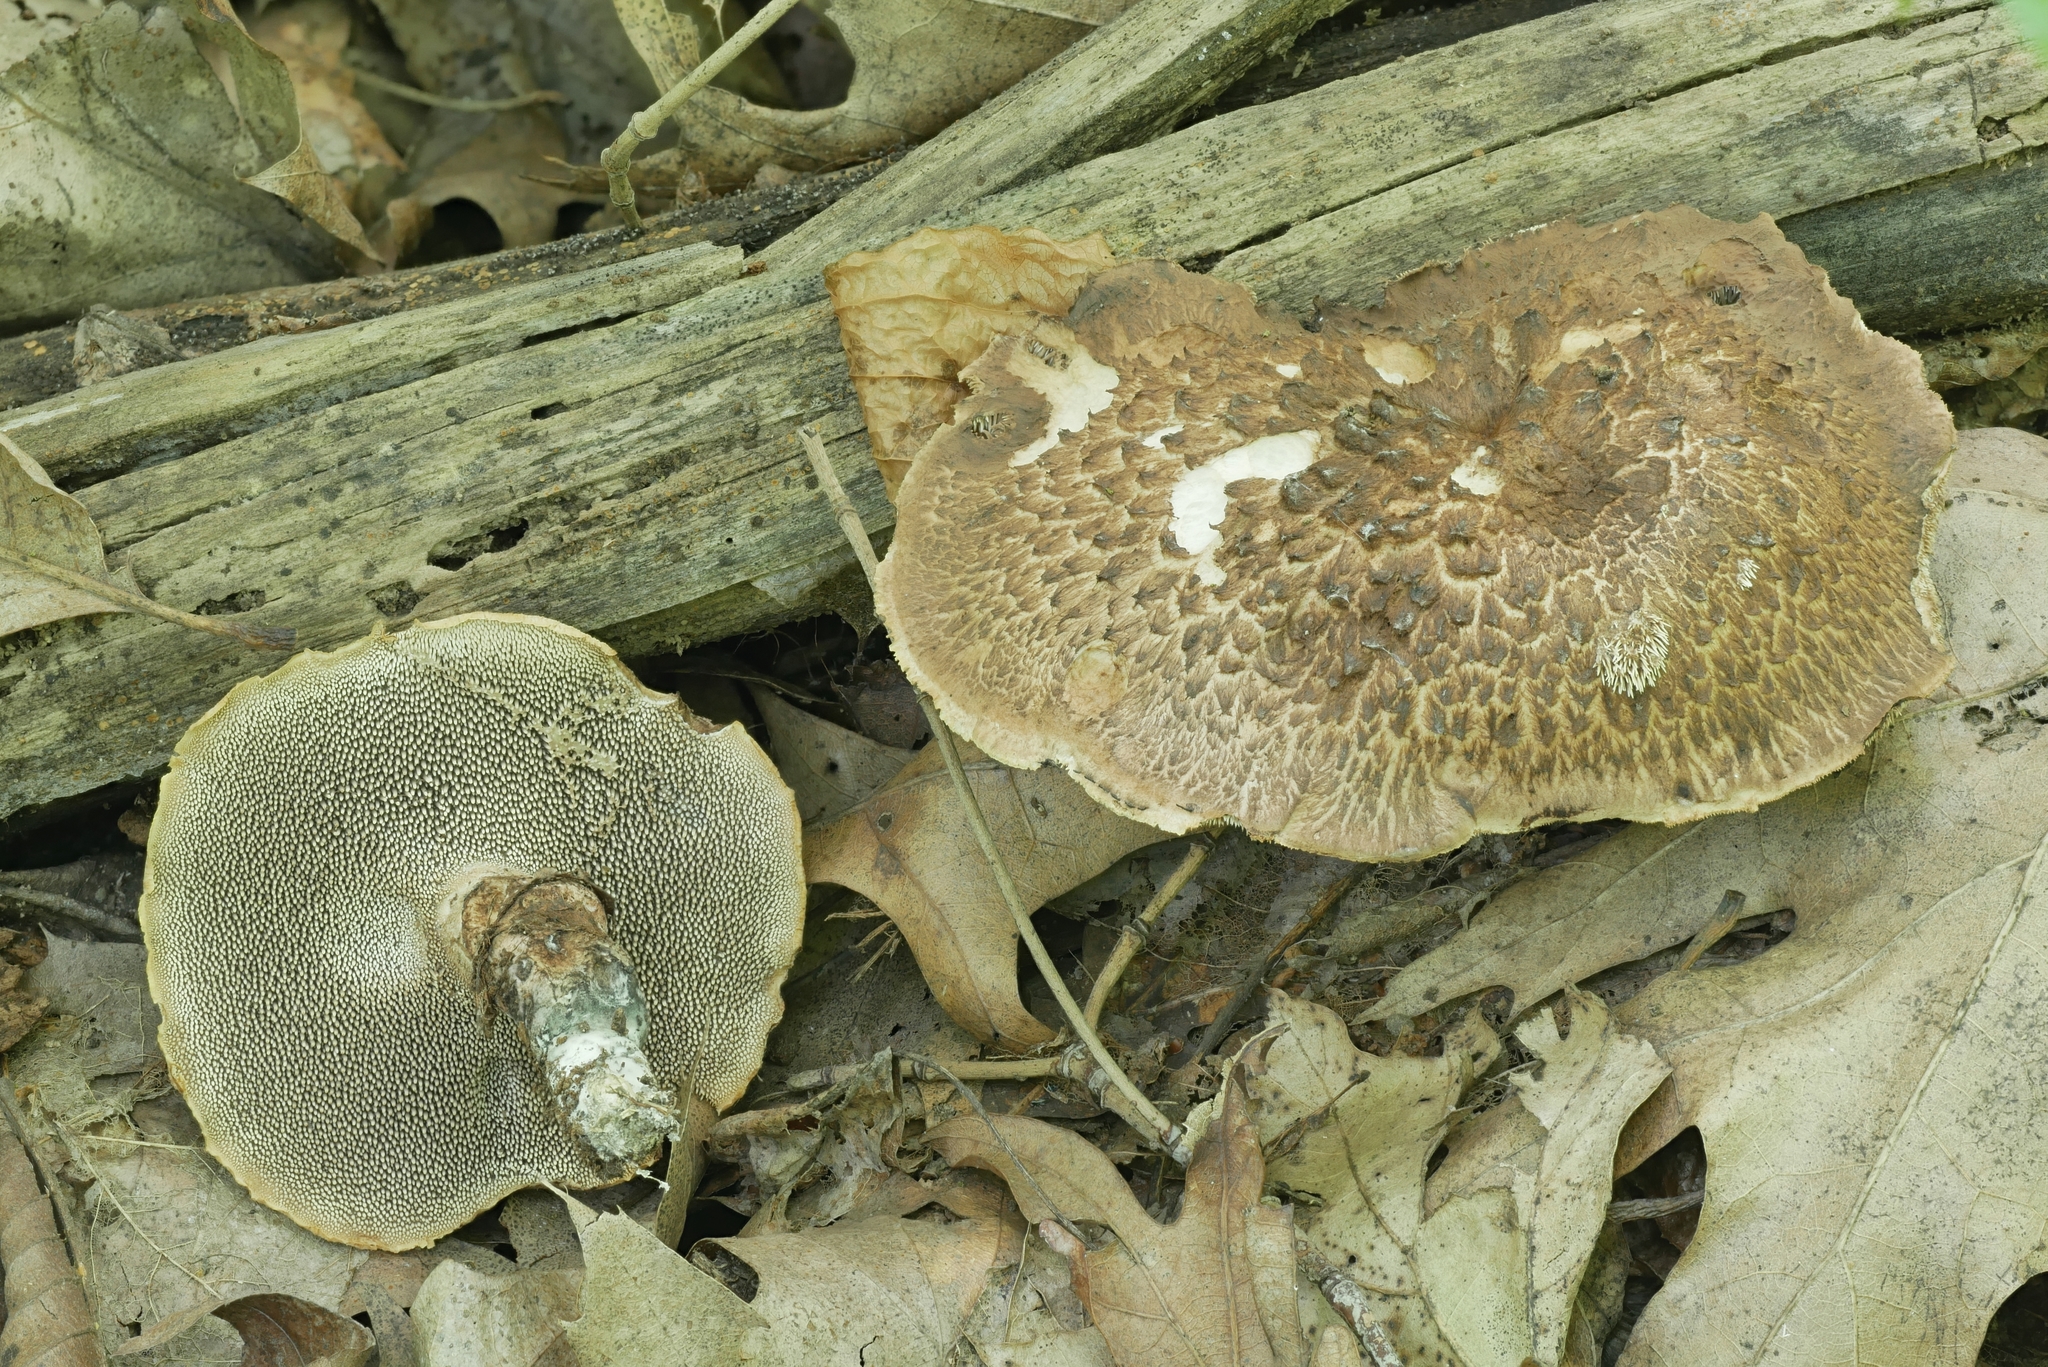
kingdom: Fungi
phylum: Basidiomycota
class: Agaricomycetes
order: Thelephorales
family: Bankeraceae
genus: Hydnellum
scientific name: Hydnellum scabrosum
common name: Bitter tooth
